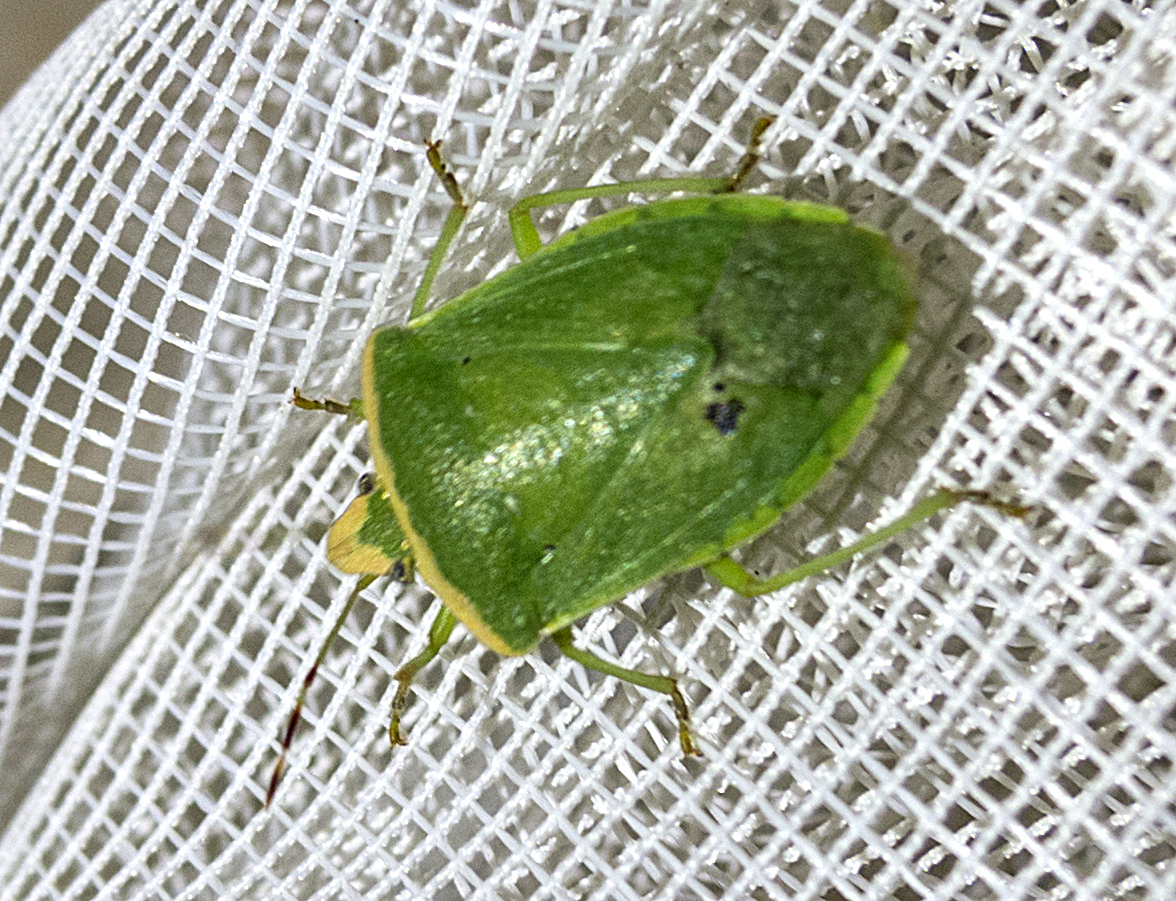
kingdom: Animalia
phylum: Arthropoda
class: Insecta
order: Hemiptera
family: Pentatomidae
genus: Nezara
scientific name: Nezara viridula
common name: Southern green stink bug
